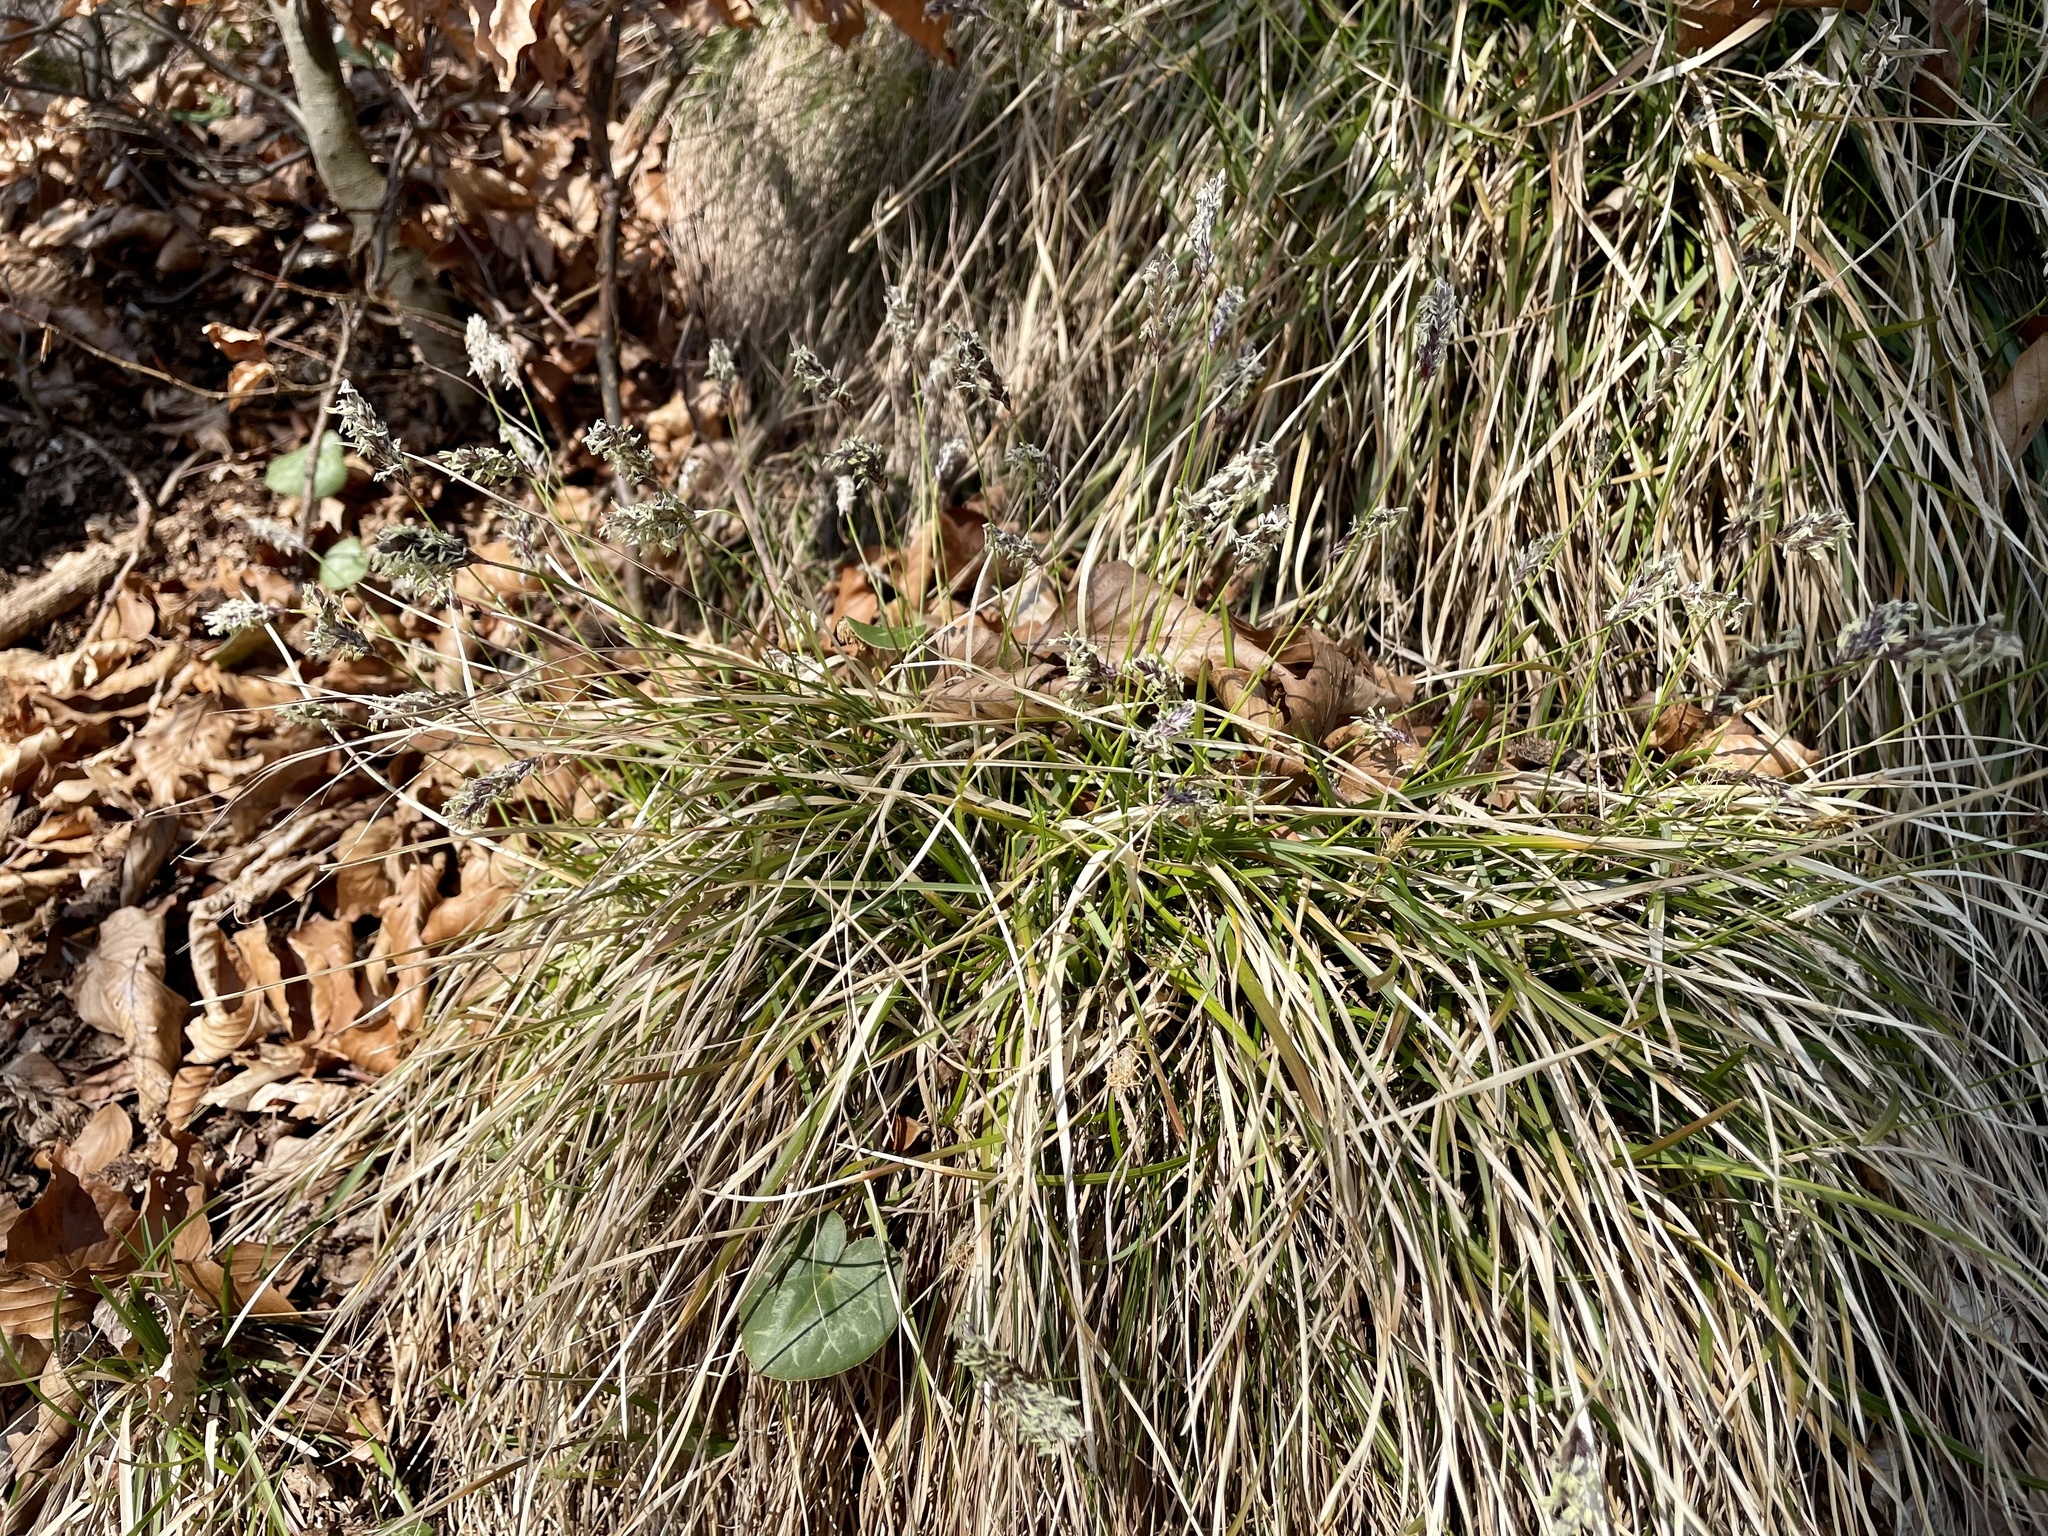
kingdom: Plantae
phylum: Tracheophyta
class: Liliopsida
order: Poales
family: Poaceae
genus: Sesleria
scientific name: Sesleria caerulea
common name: Blue moor-grass
